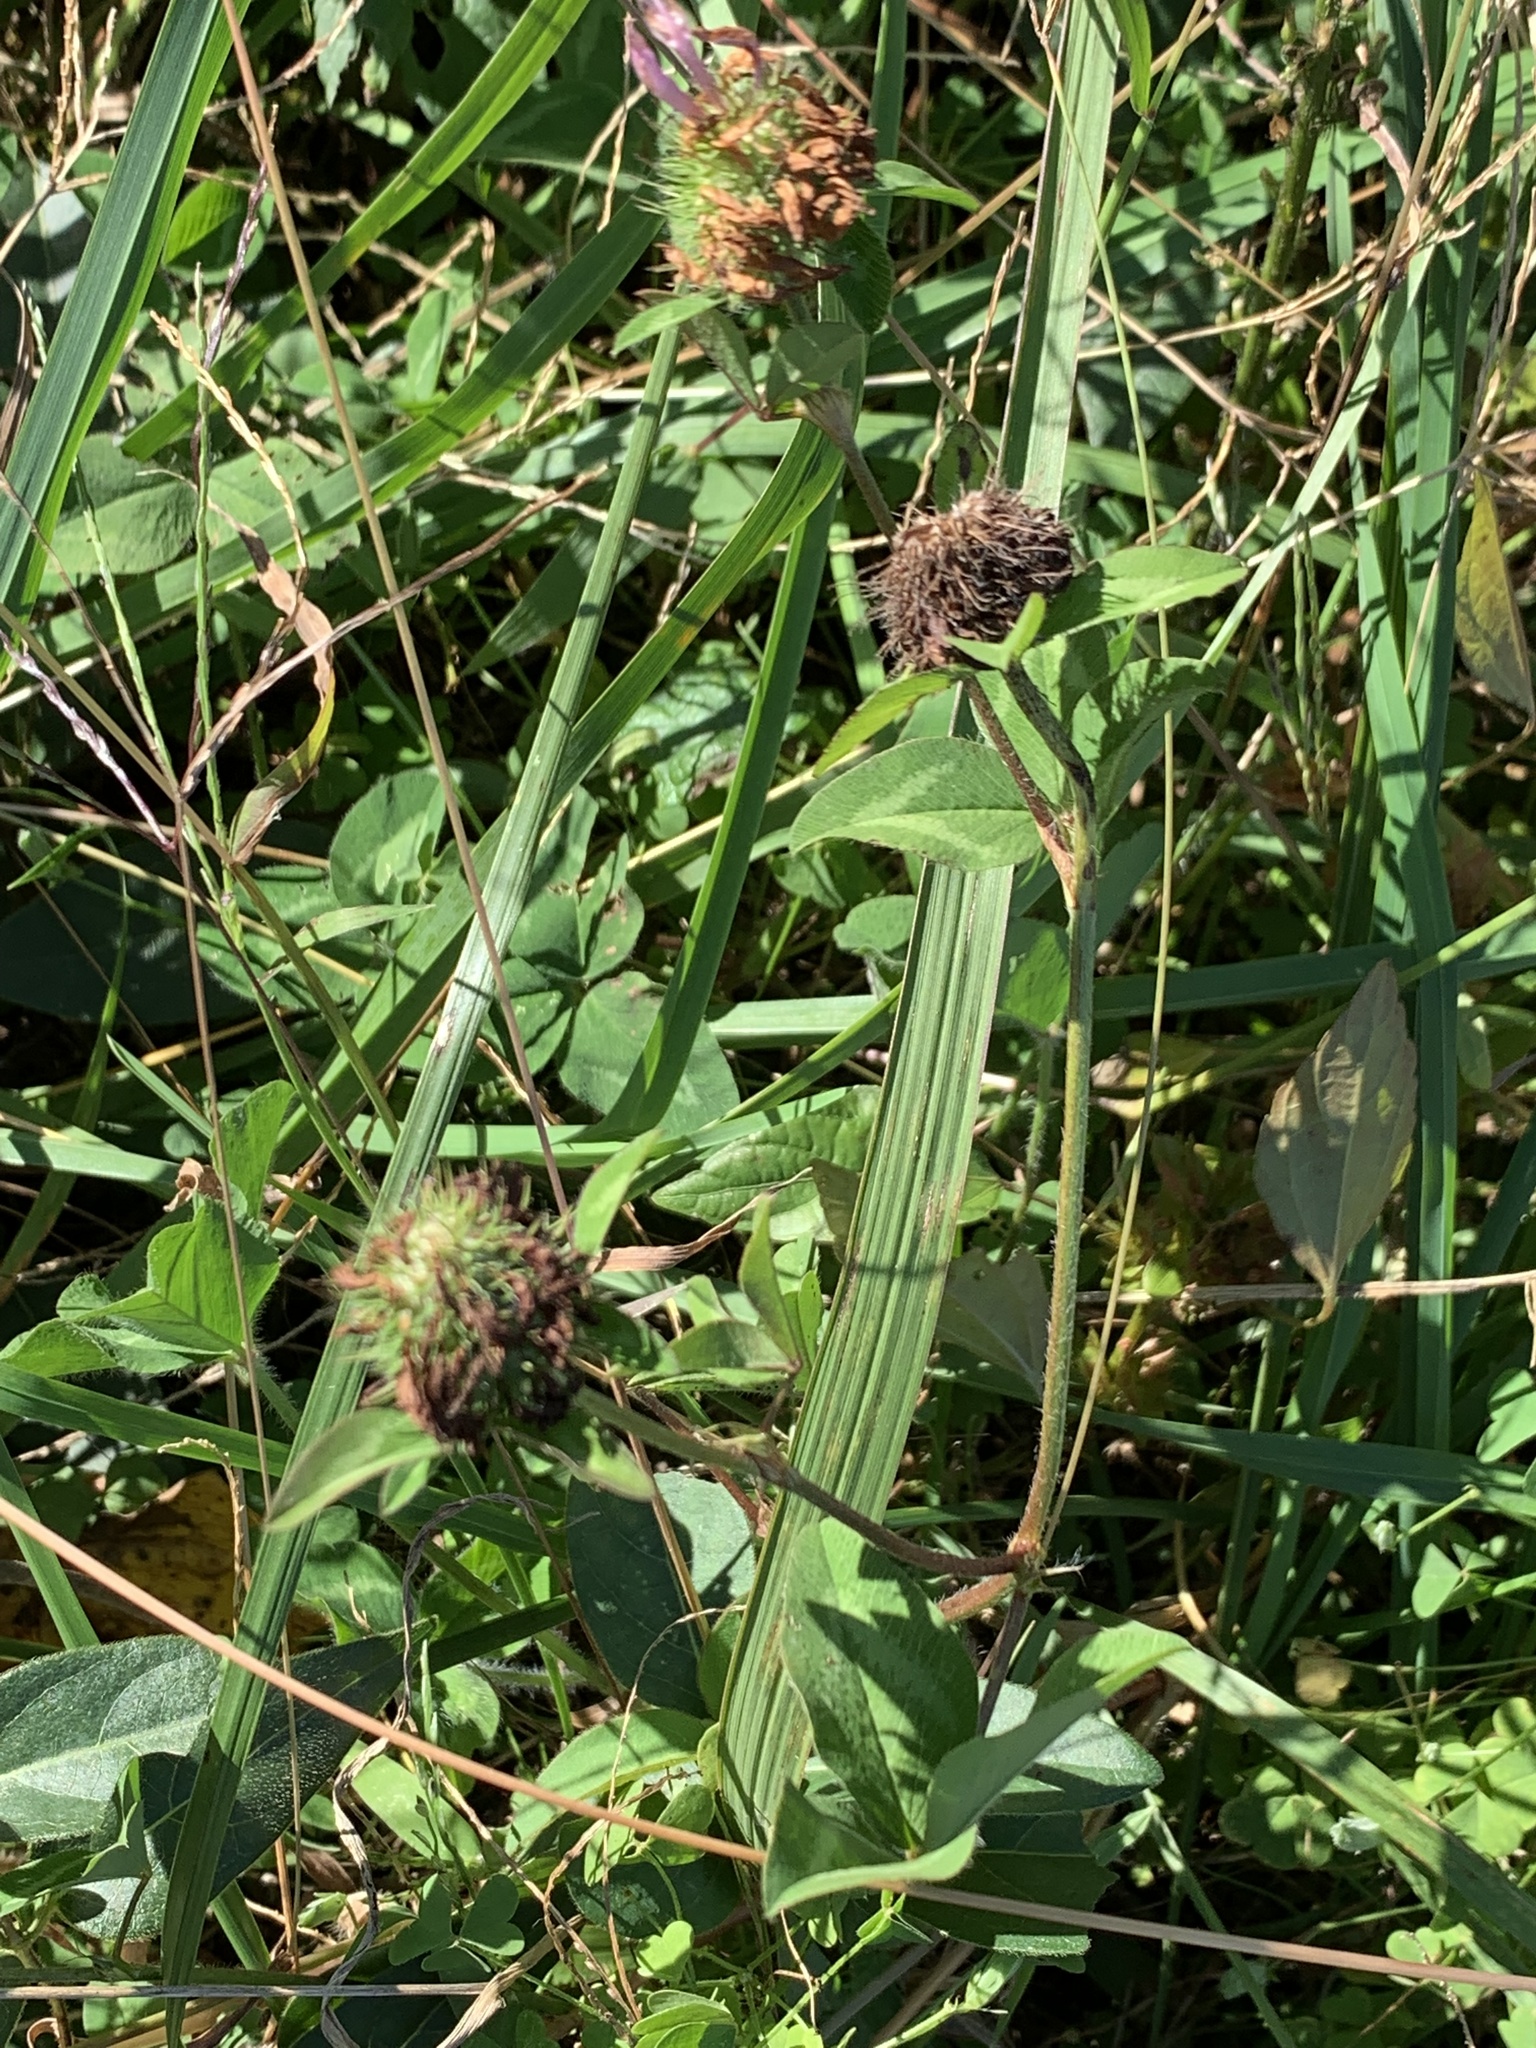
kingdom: Plantae
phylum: Tracheophyta
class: Magnoliopsida
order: Fabales
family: Fabaceae
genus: Trifolium
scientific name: Trifolium pratense
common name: Red clover
